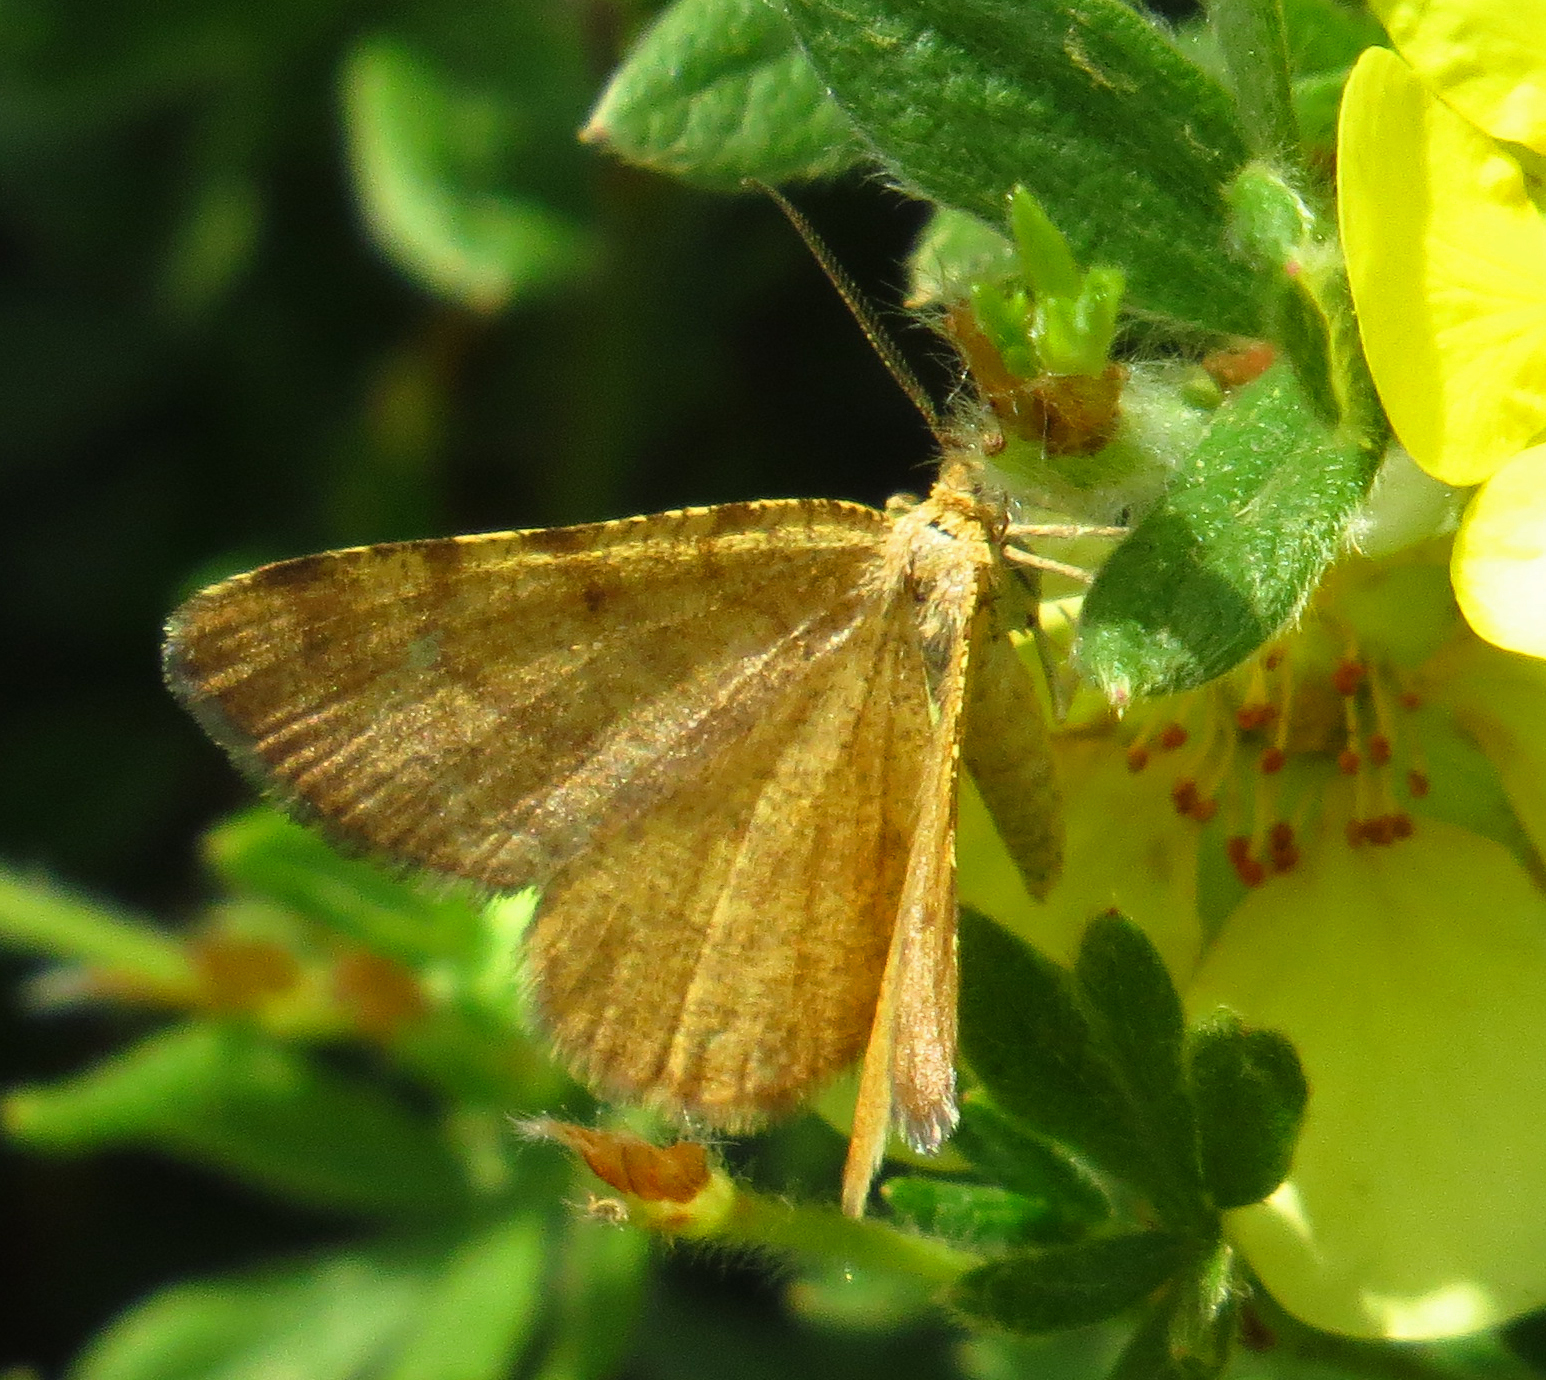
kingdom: Animalia
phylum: Arthropoda
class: Insecta
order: Lepidoptera
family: Geometridae
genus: Macaria
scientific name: Macaria brunneata
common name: Rannoch looper
